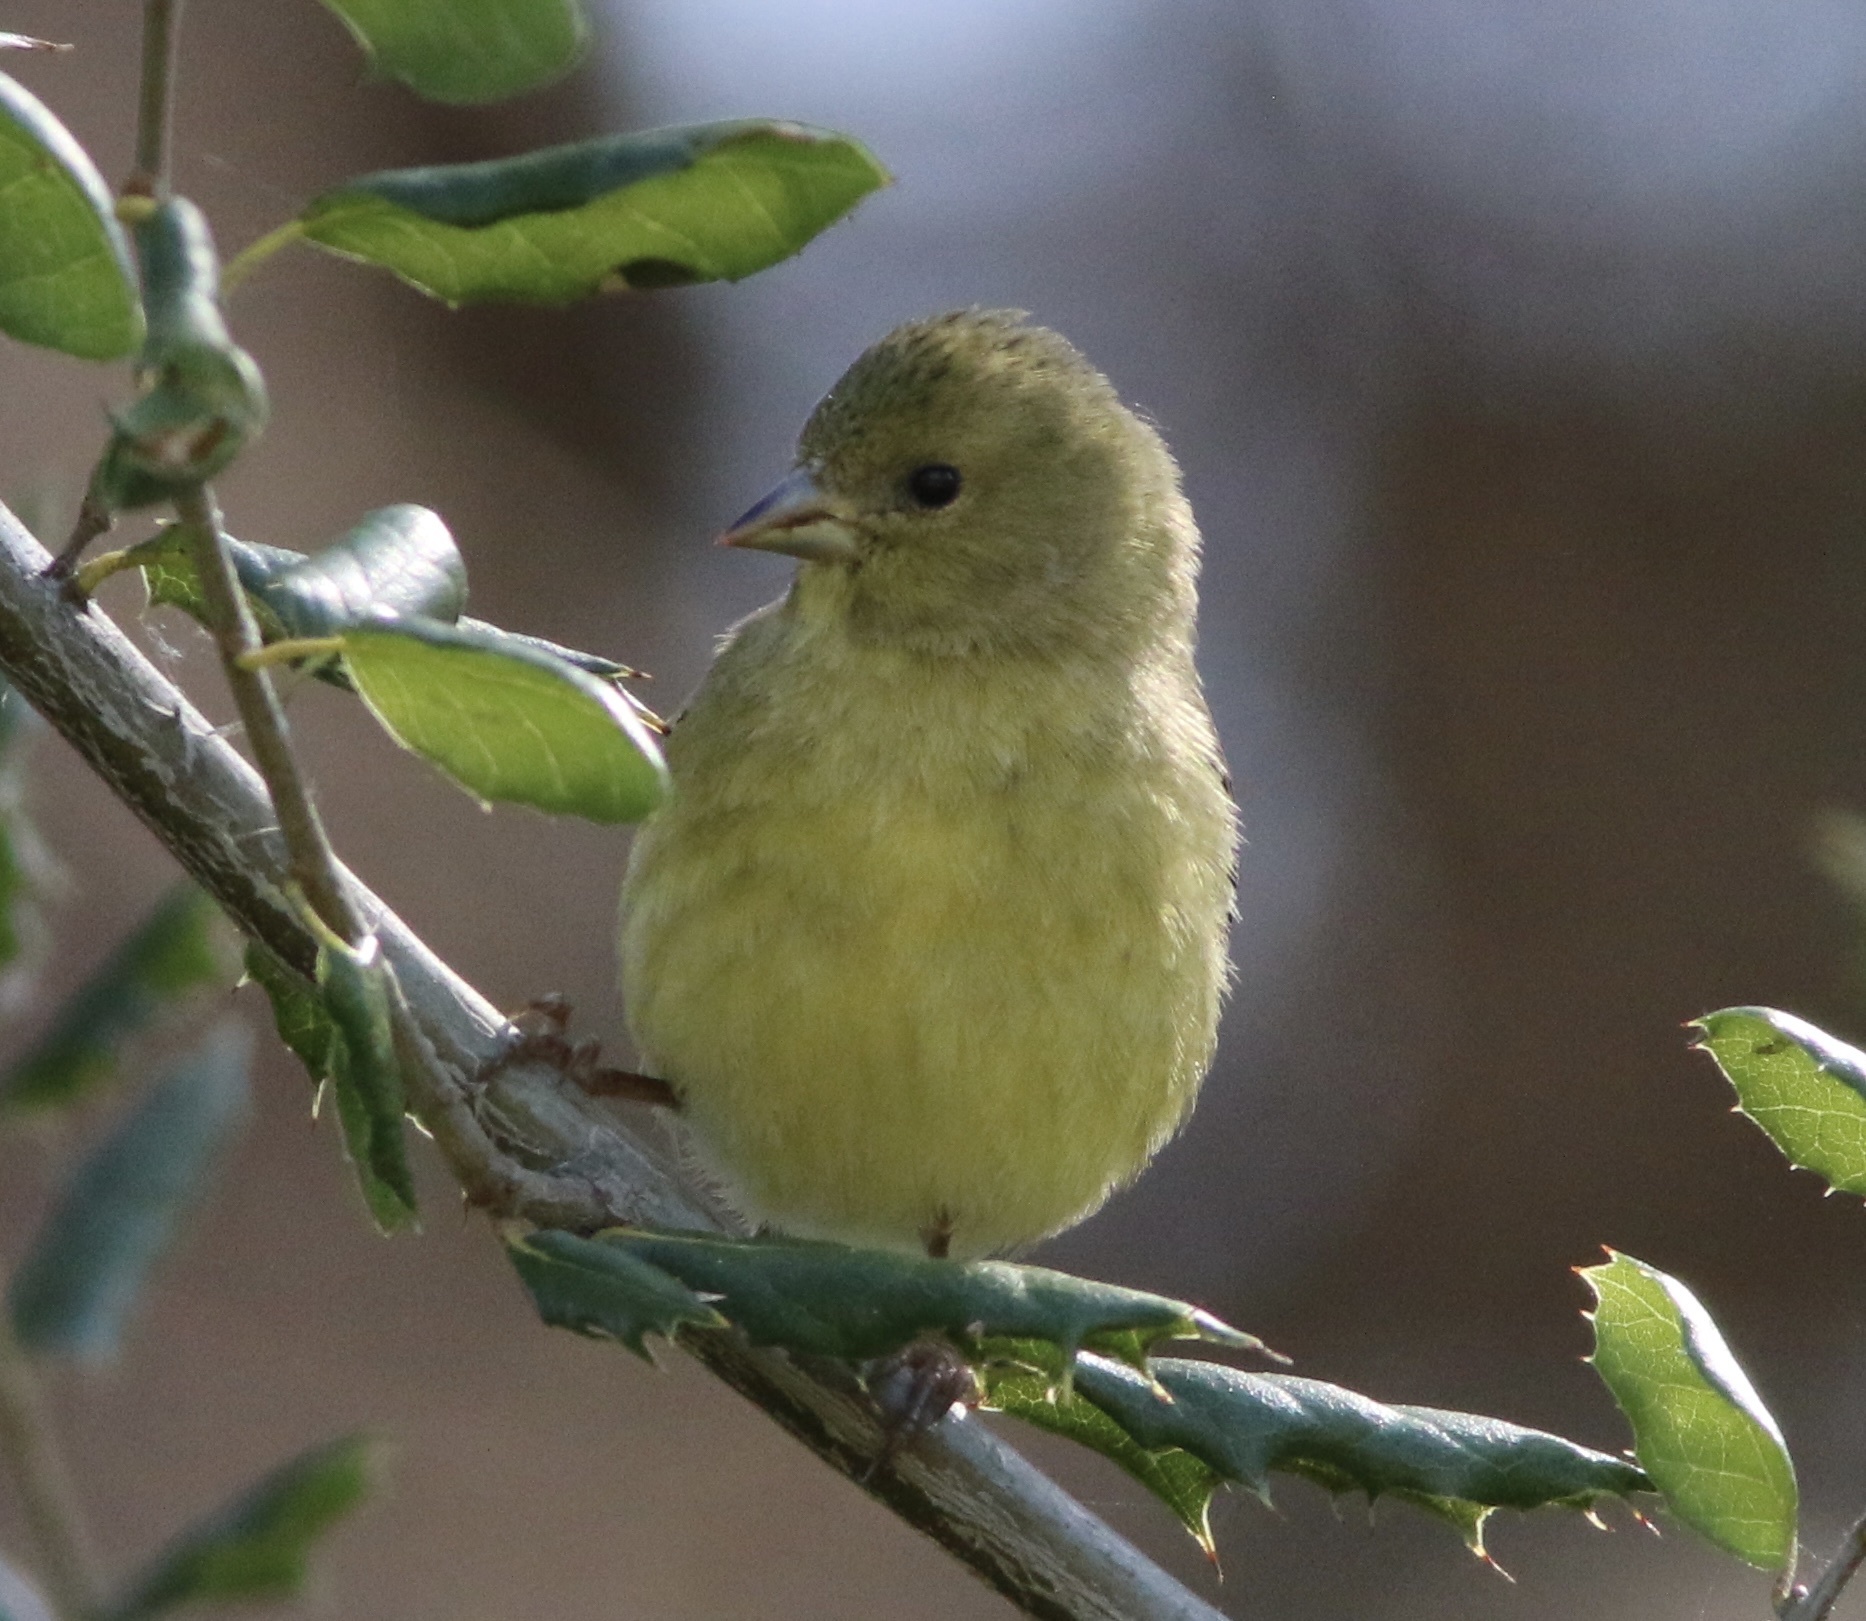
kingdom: Animalia
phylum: Chordata
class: Aves
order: Passeriformes
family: Fringillidae
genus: Spinus
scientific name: Spinus psaltria
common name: Lesser goldfinch
